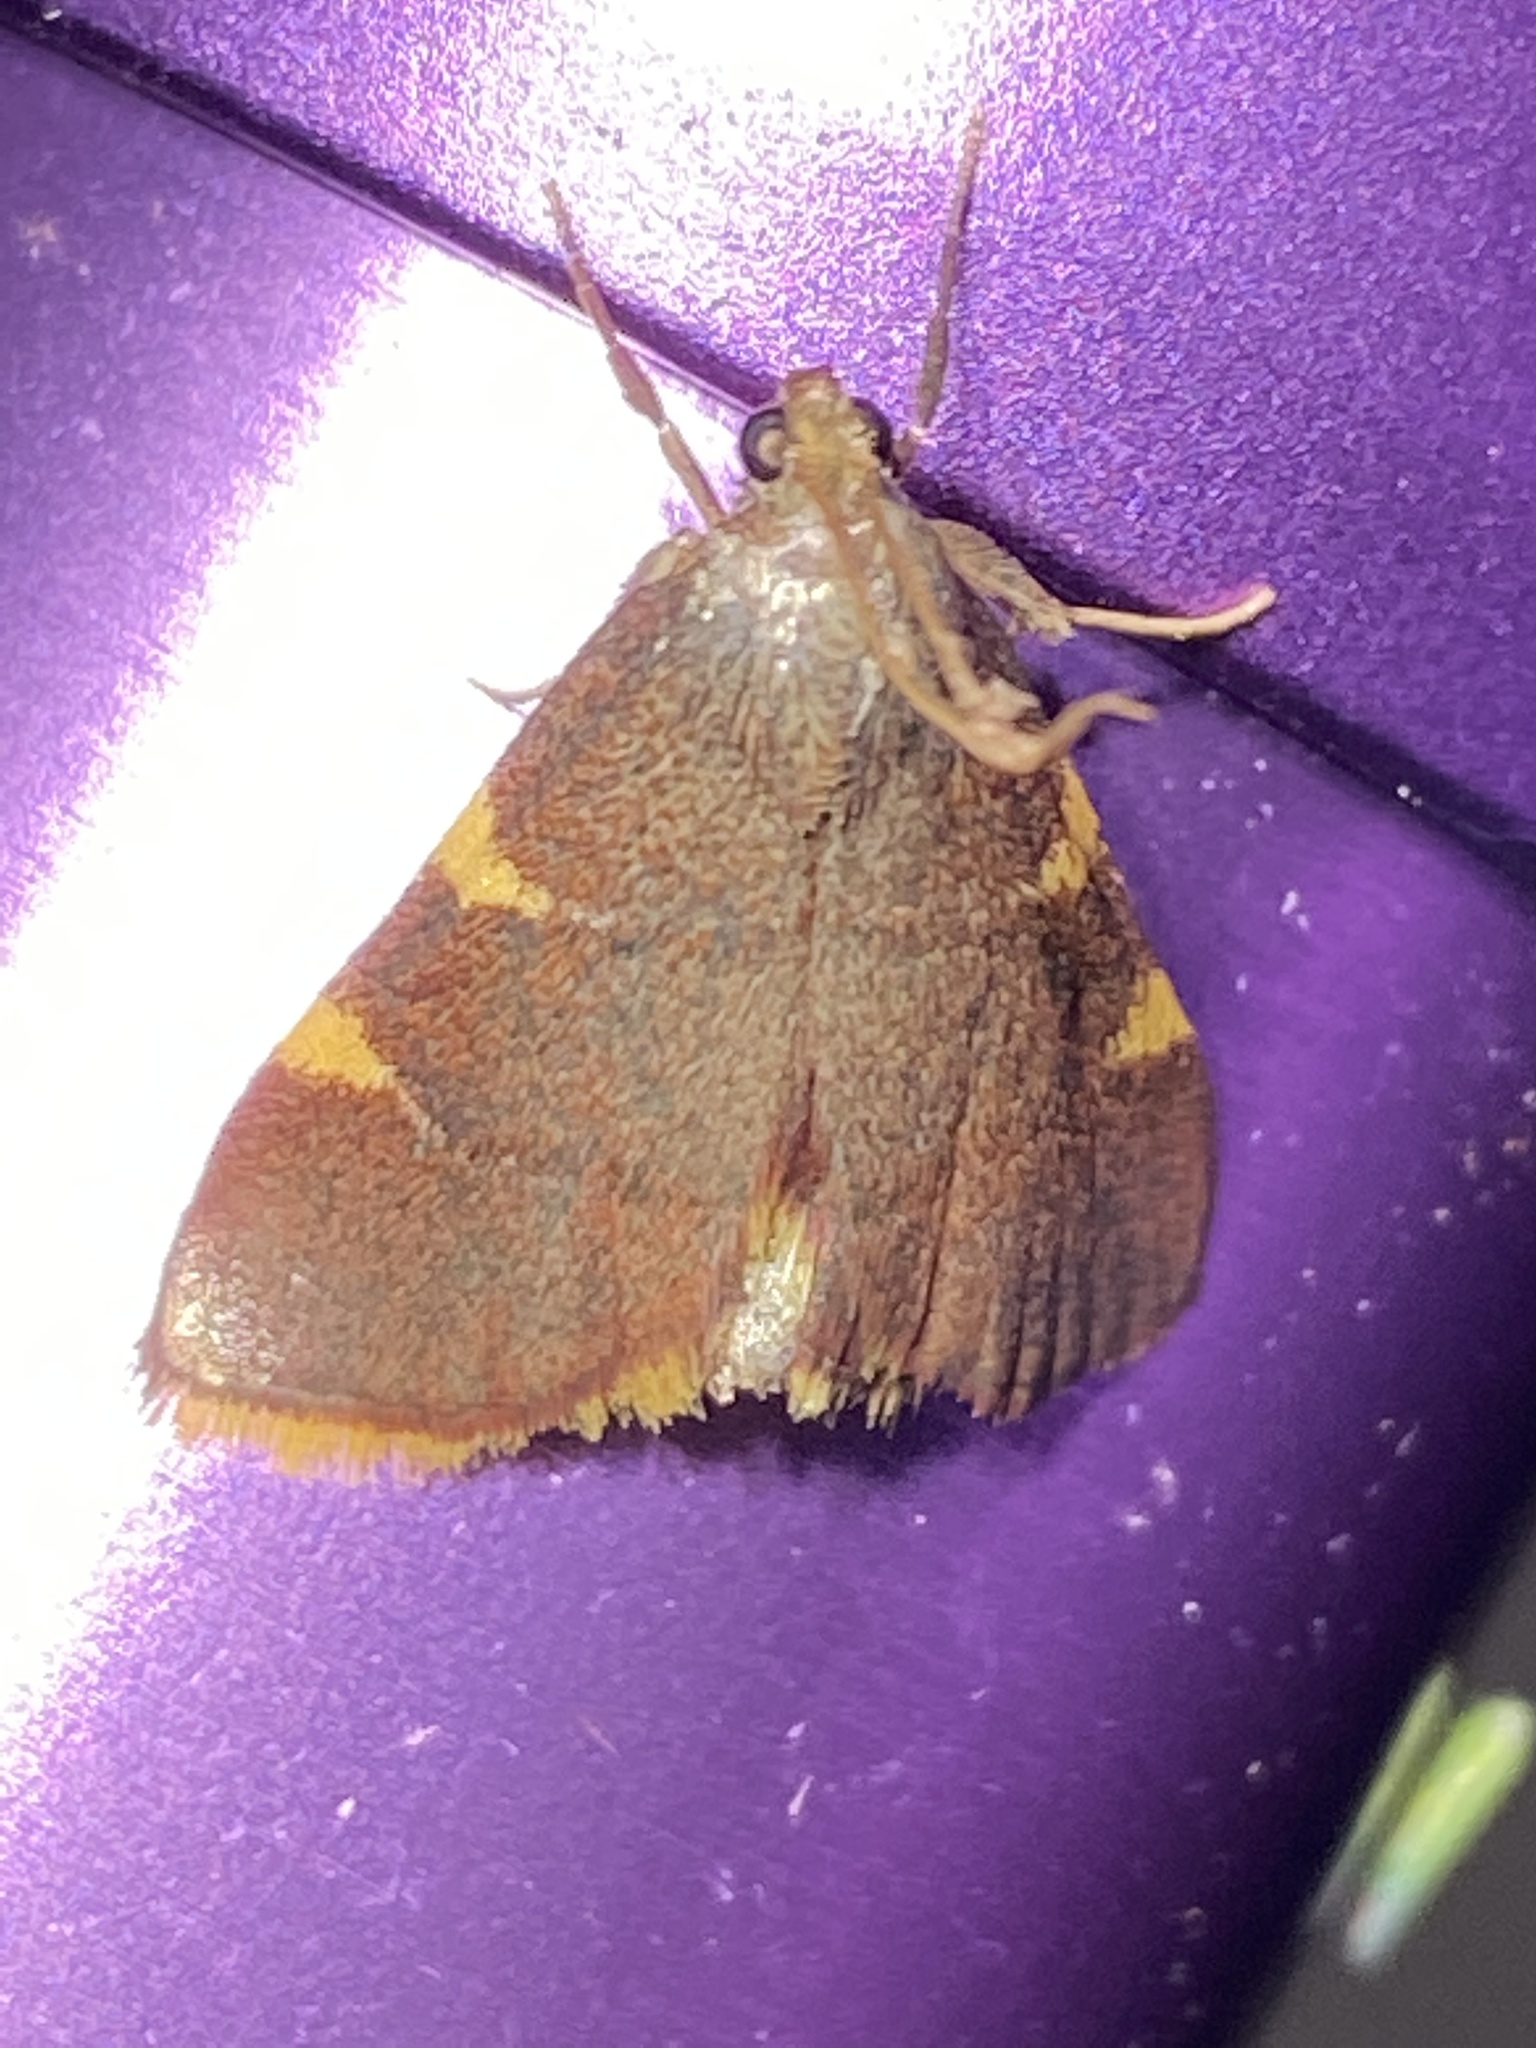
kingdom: Animalia
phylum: Arthropoda
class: Insecta
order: Lepidoptera
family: Pyralidae
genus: Hypsopygia
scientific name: Hypsopygia olinalis
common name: Yellow-fringed dolichomia moth
